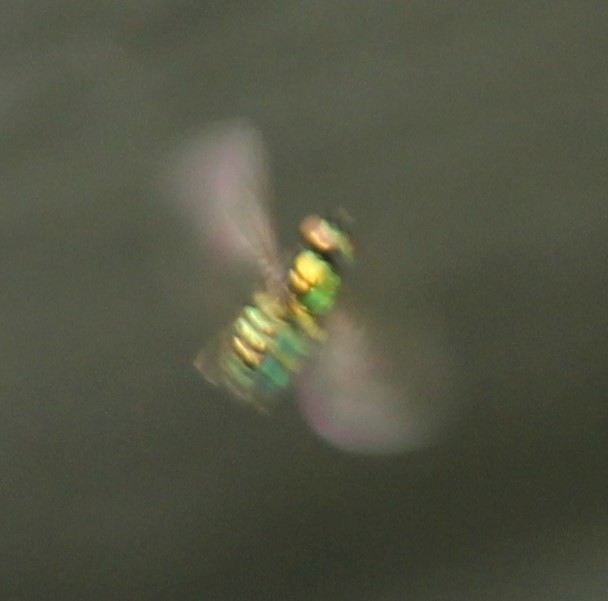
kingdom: Animalia
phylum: Arthropoda
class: Insecta
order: Diptera
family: Stratiomyidae
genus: Microchrysa
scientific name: Microchrysa polita
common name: Black-horned gem
